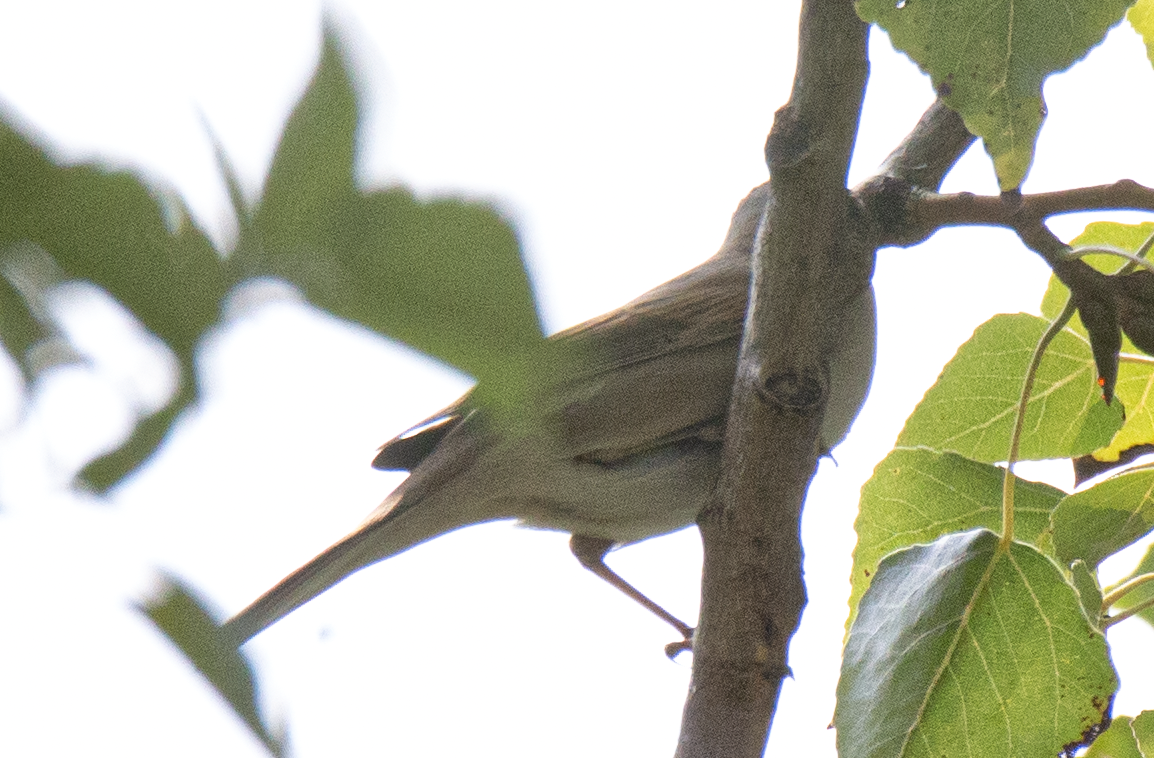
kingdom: Animalia
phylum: Chordata
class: Aves
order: Passeriformes
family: Sylviidae
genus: Sylvia
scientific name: Sylvia communis
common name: Common whitethroat
